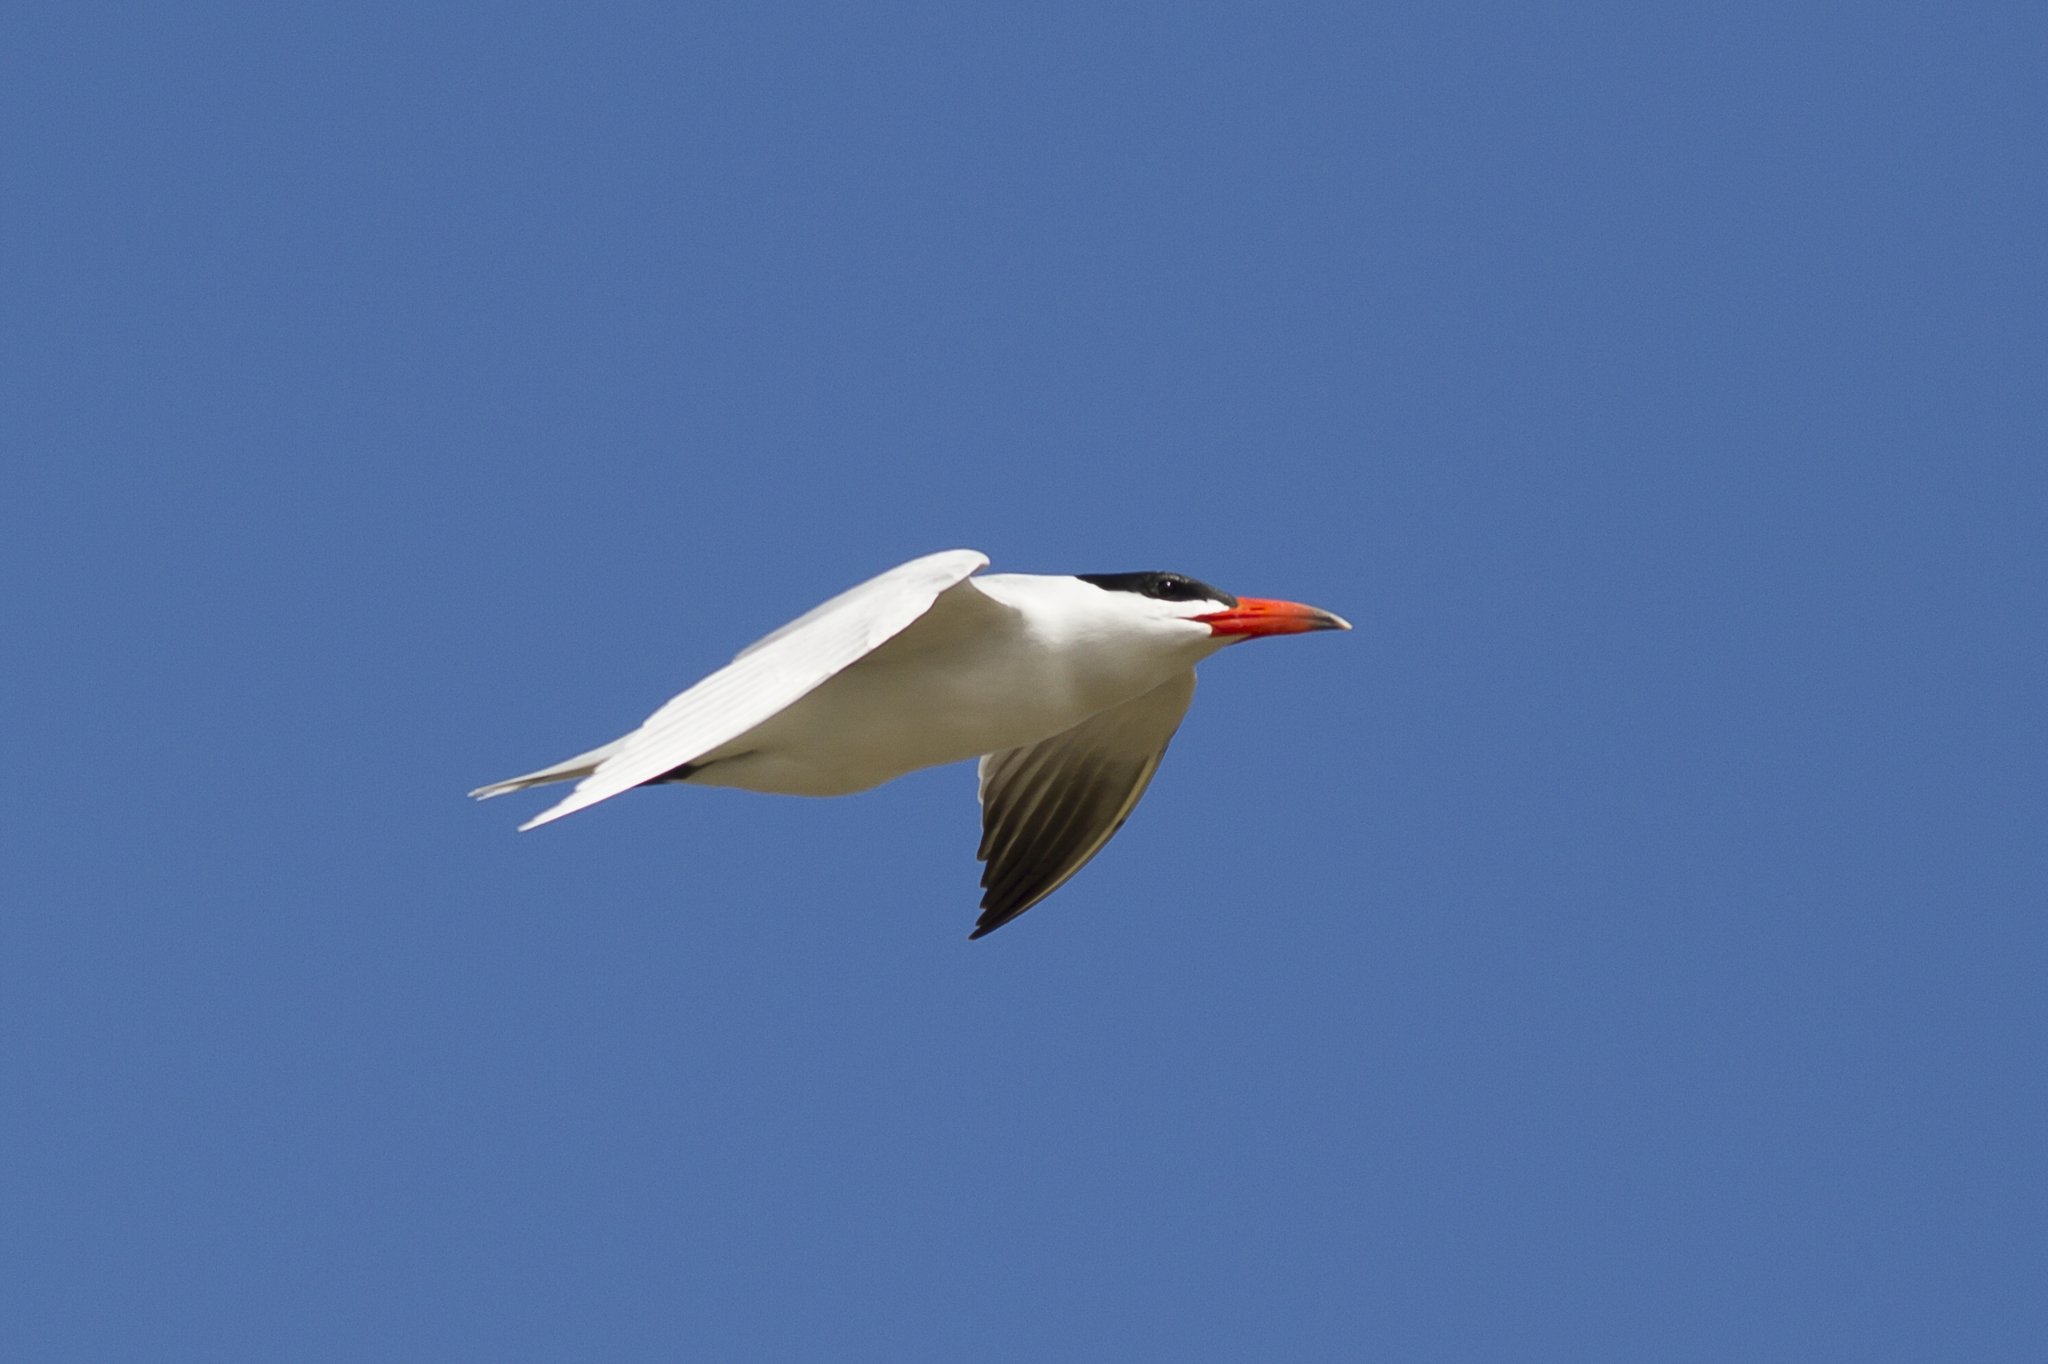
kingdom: Animalia
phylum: Chordata
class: Aves
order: Charadriiformes
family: Laridae
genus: Hydroprogne
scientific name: Hydroprogne caspia
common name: Caspian tern
